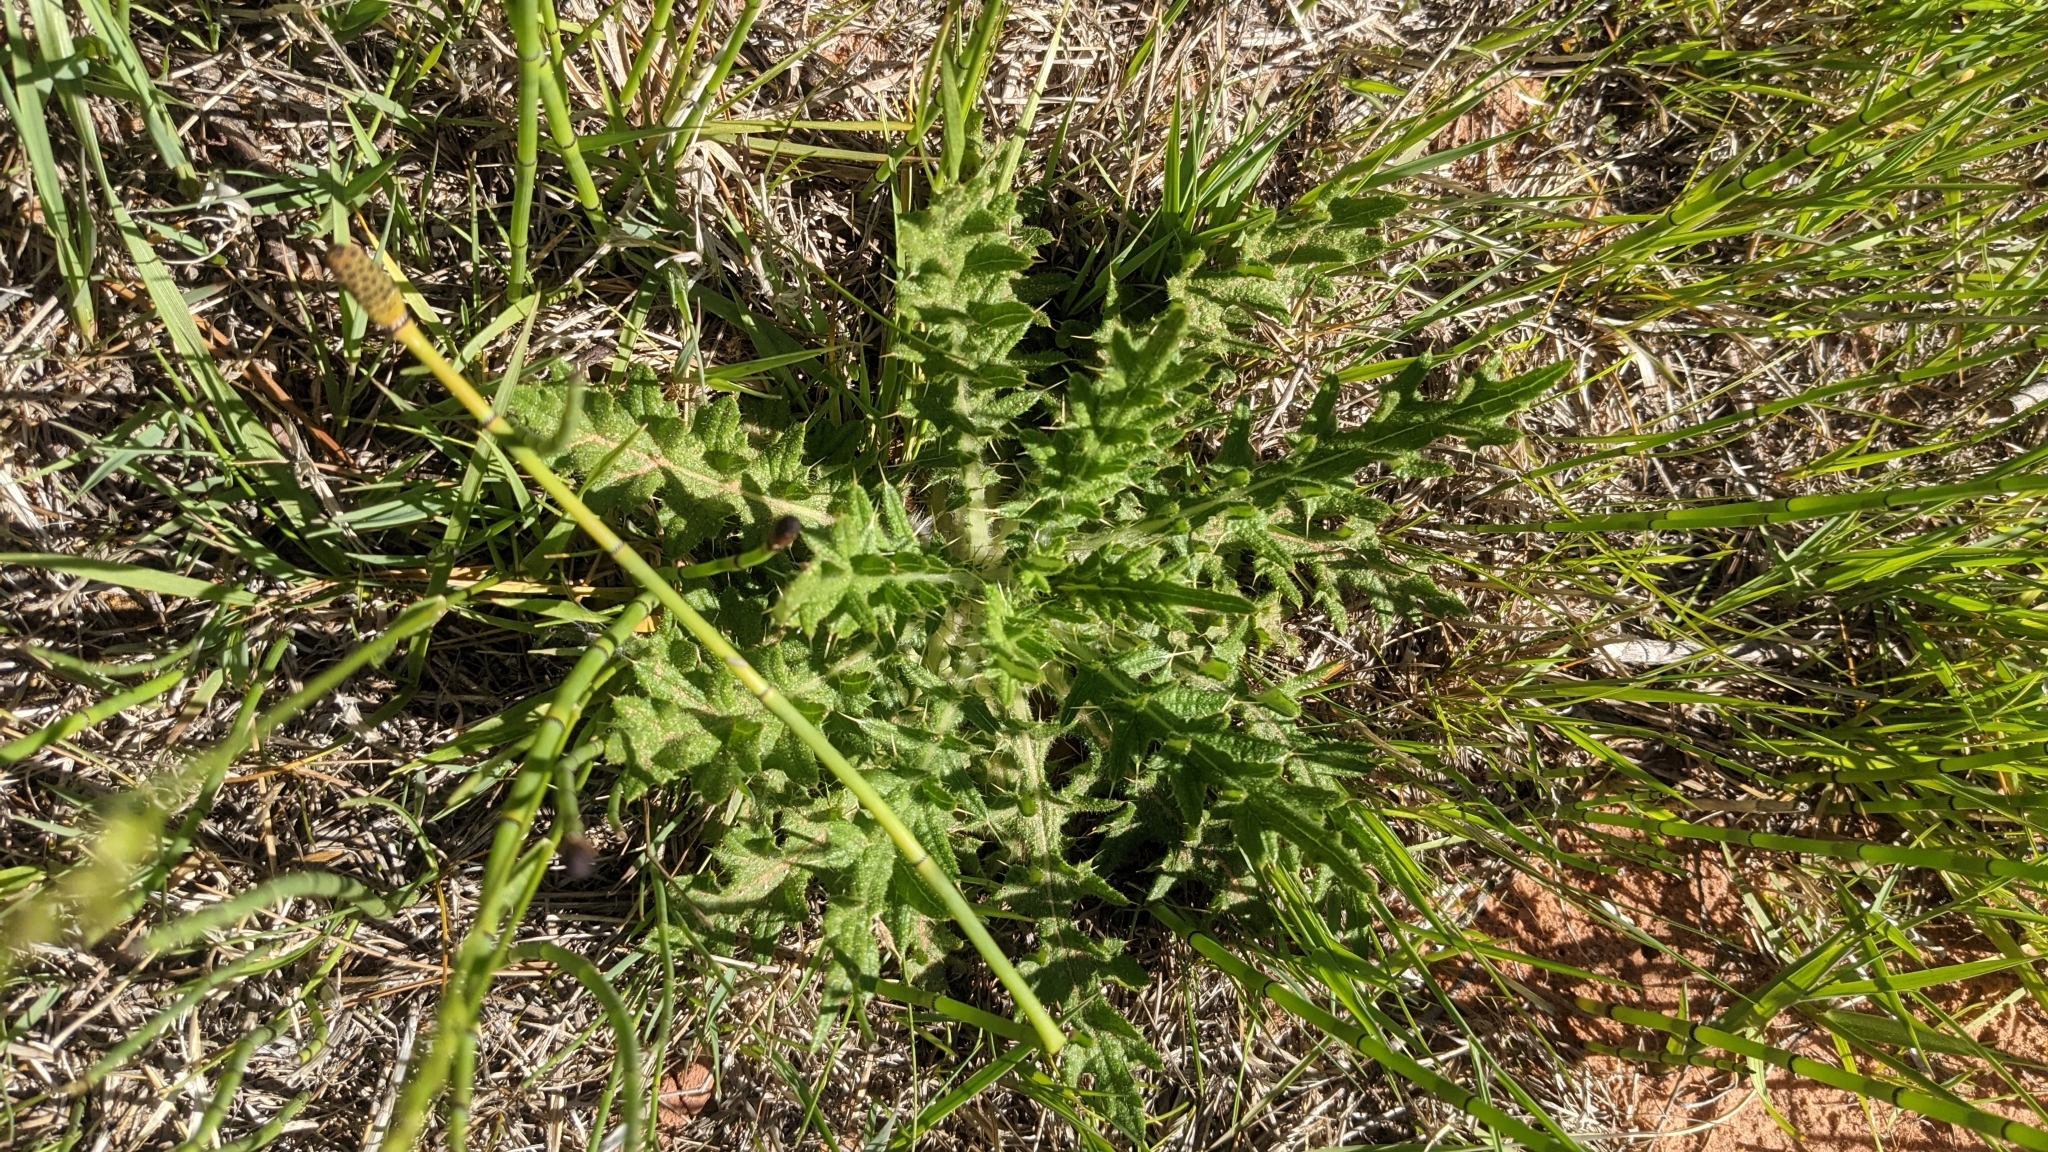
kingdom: Plantae
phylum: Tracheophyta
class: Magnoliopsida
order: Asterales
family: Asteraceae
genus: Cirsium
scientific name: Cirsium vulgare
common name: Bull thistle
